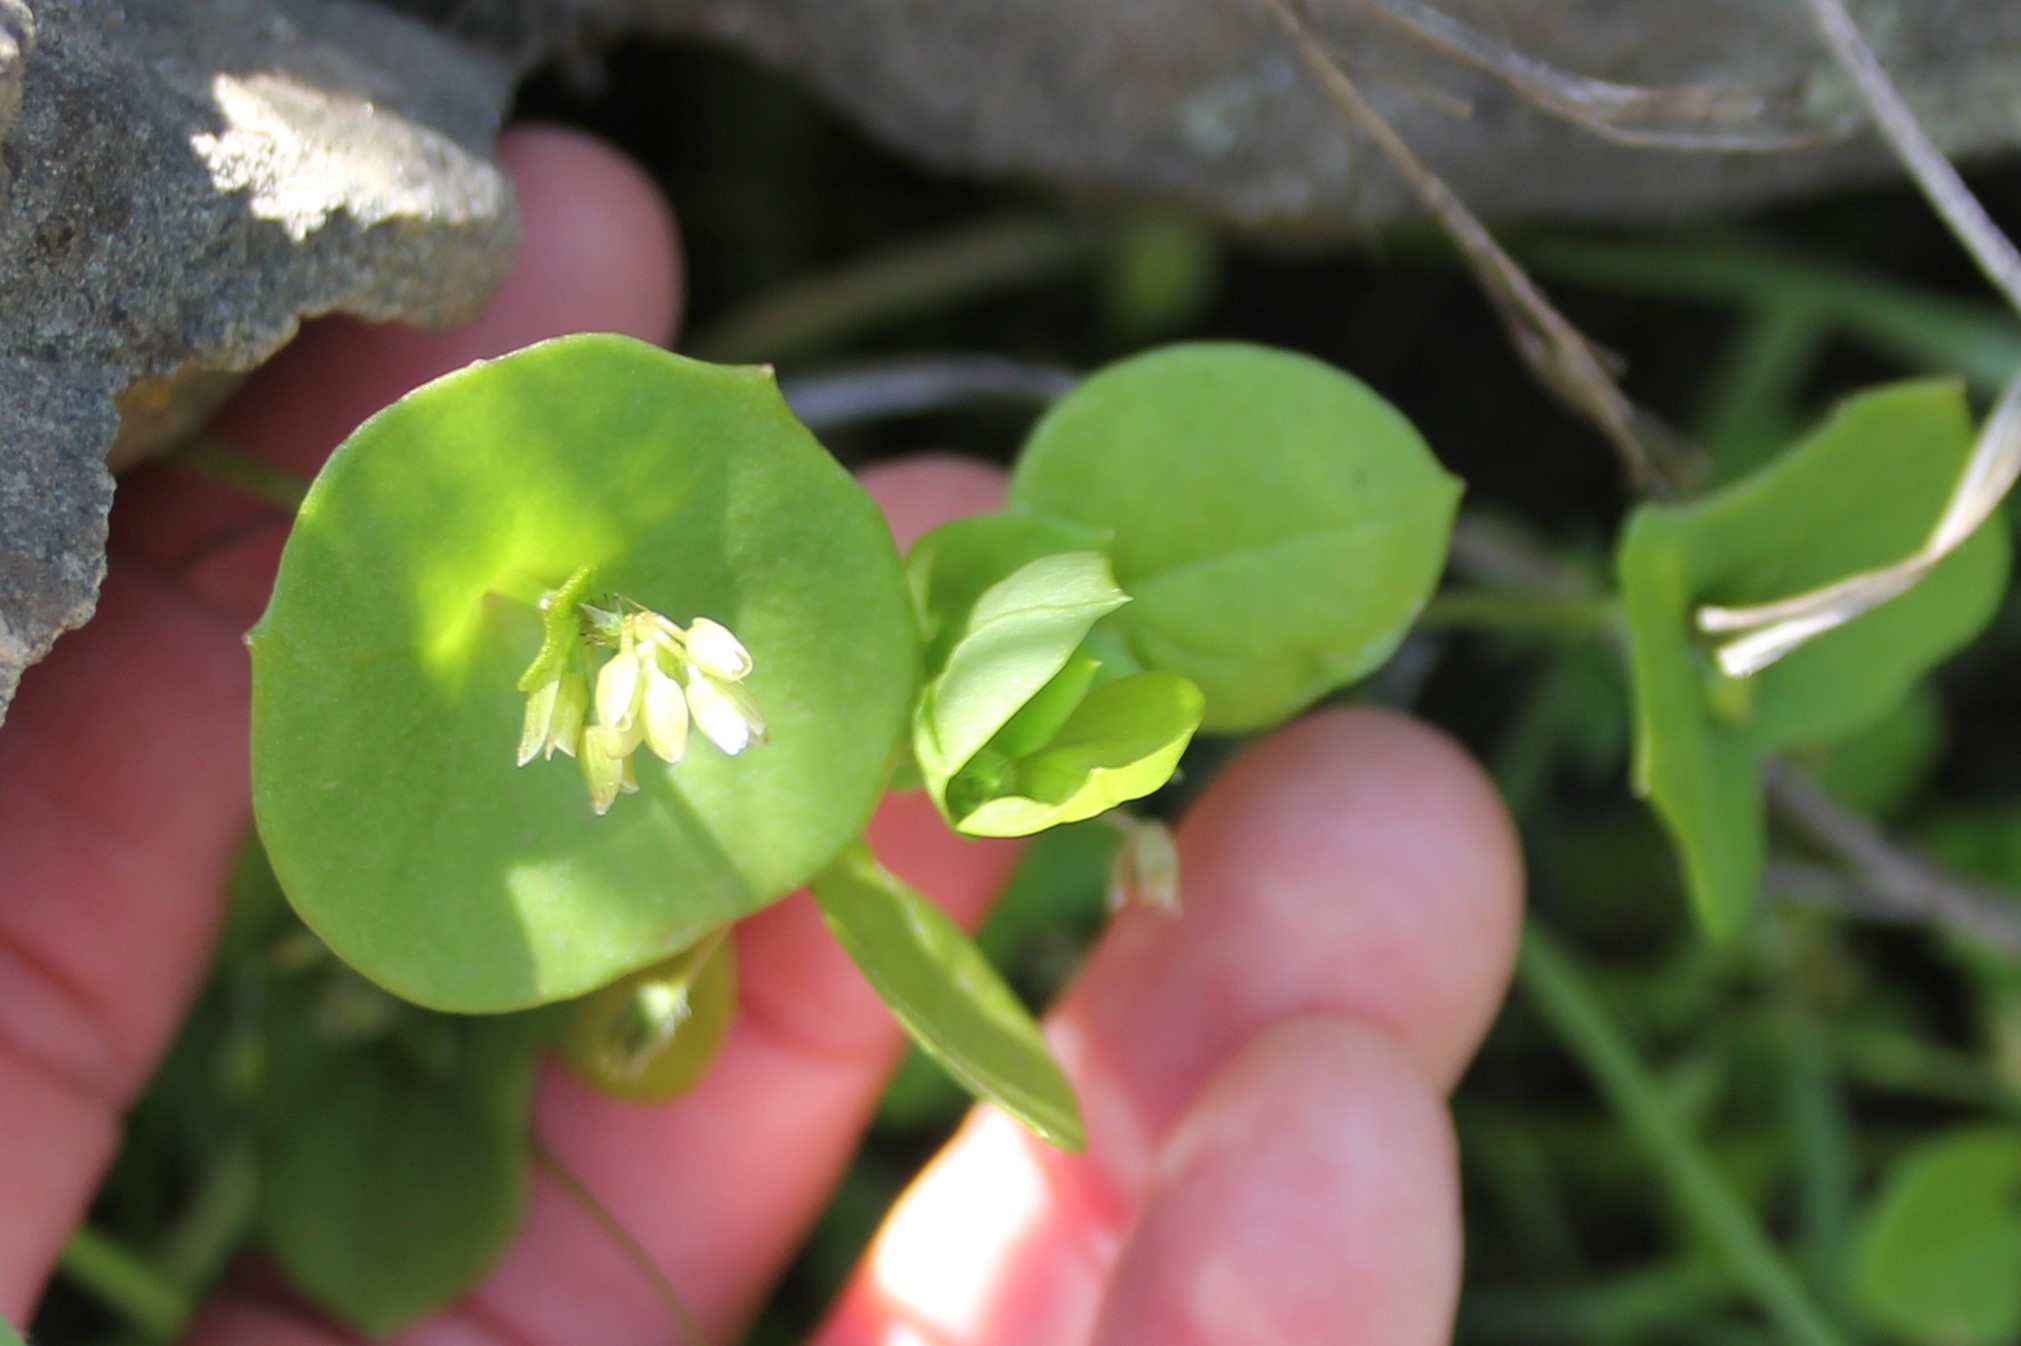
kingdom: Plantae
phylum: Tracheophyta
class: Magnoliopsida
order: Caryophyllales
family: Montiaceae
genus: Claytonia
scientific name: Claytonia
